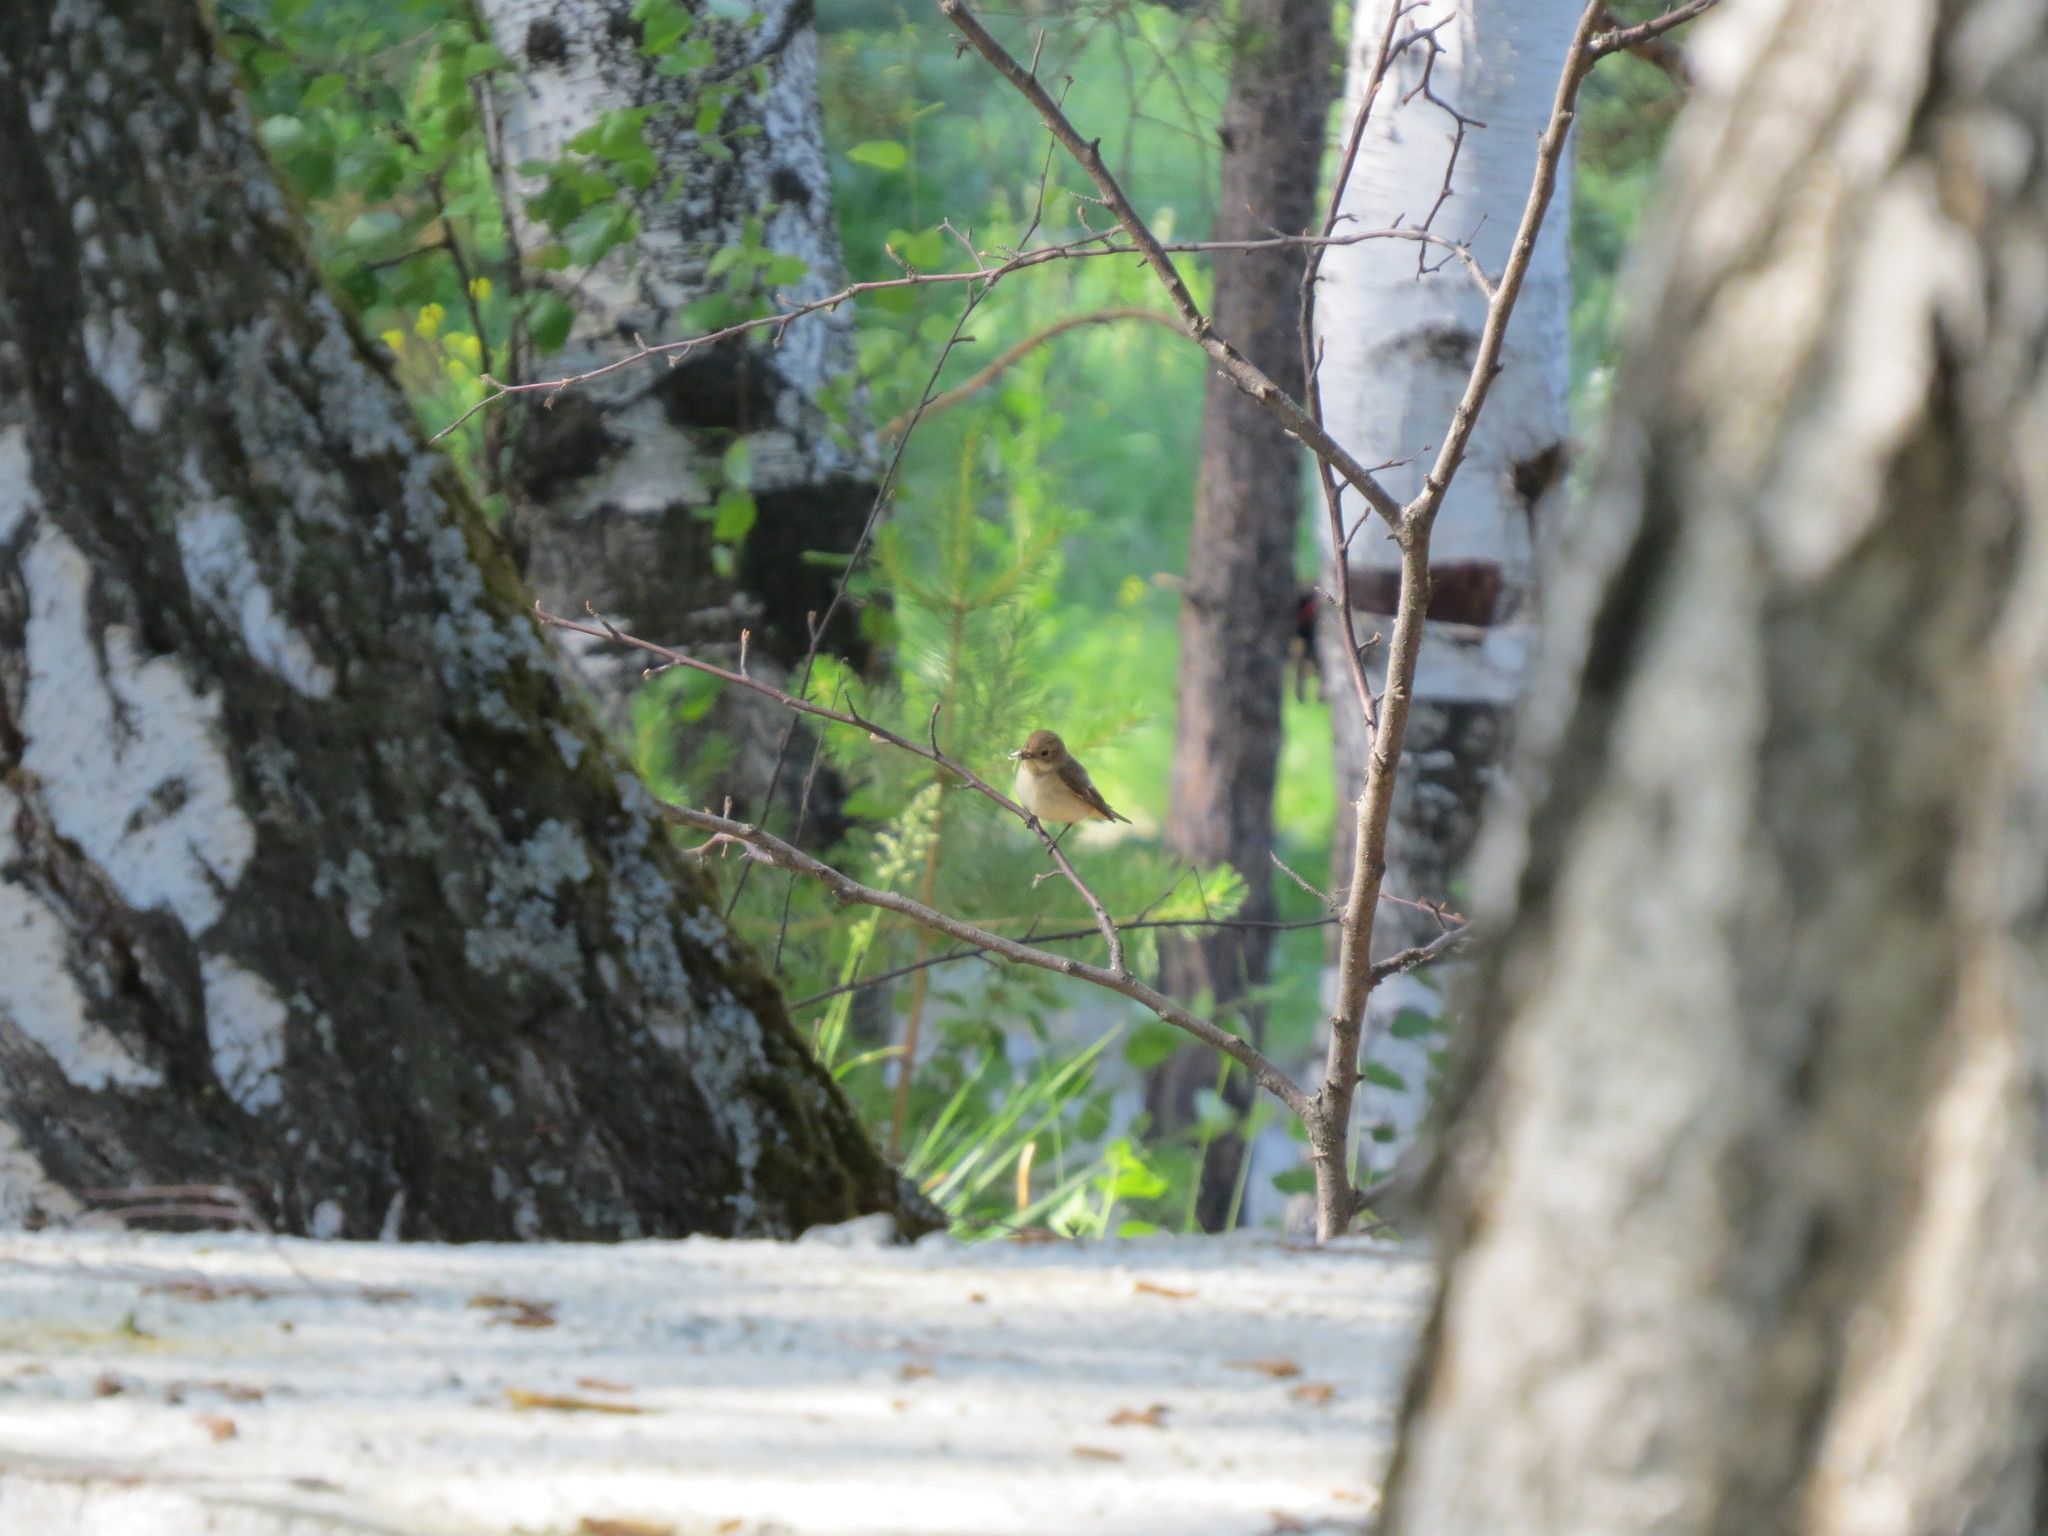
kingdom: Animalia
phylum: Chordata
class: Aves
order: Passeriformes
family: Muscicapidae
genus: Ficedula
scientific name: Ficedula hypoleuca
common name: European pied flycatcher
